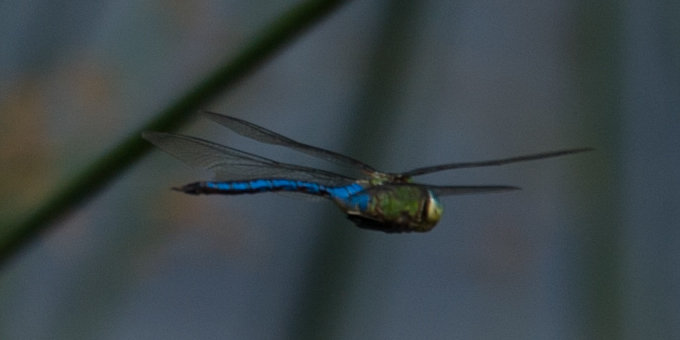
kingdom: Animalia
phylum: Arthropoda
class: Insecta
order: Odonata
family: Aeshnidae
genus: Anax
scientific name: Anax imperator
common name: Emperor dragonfly
